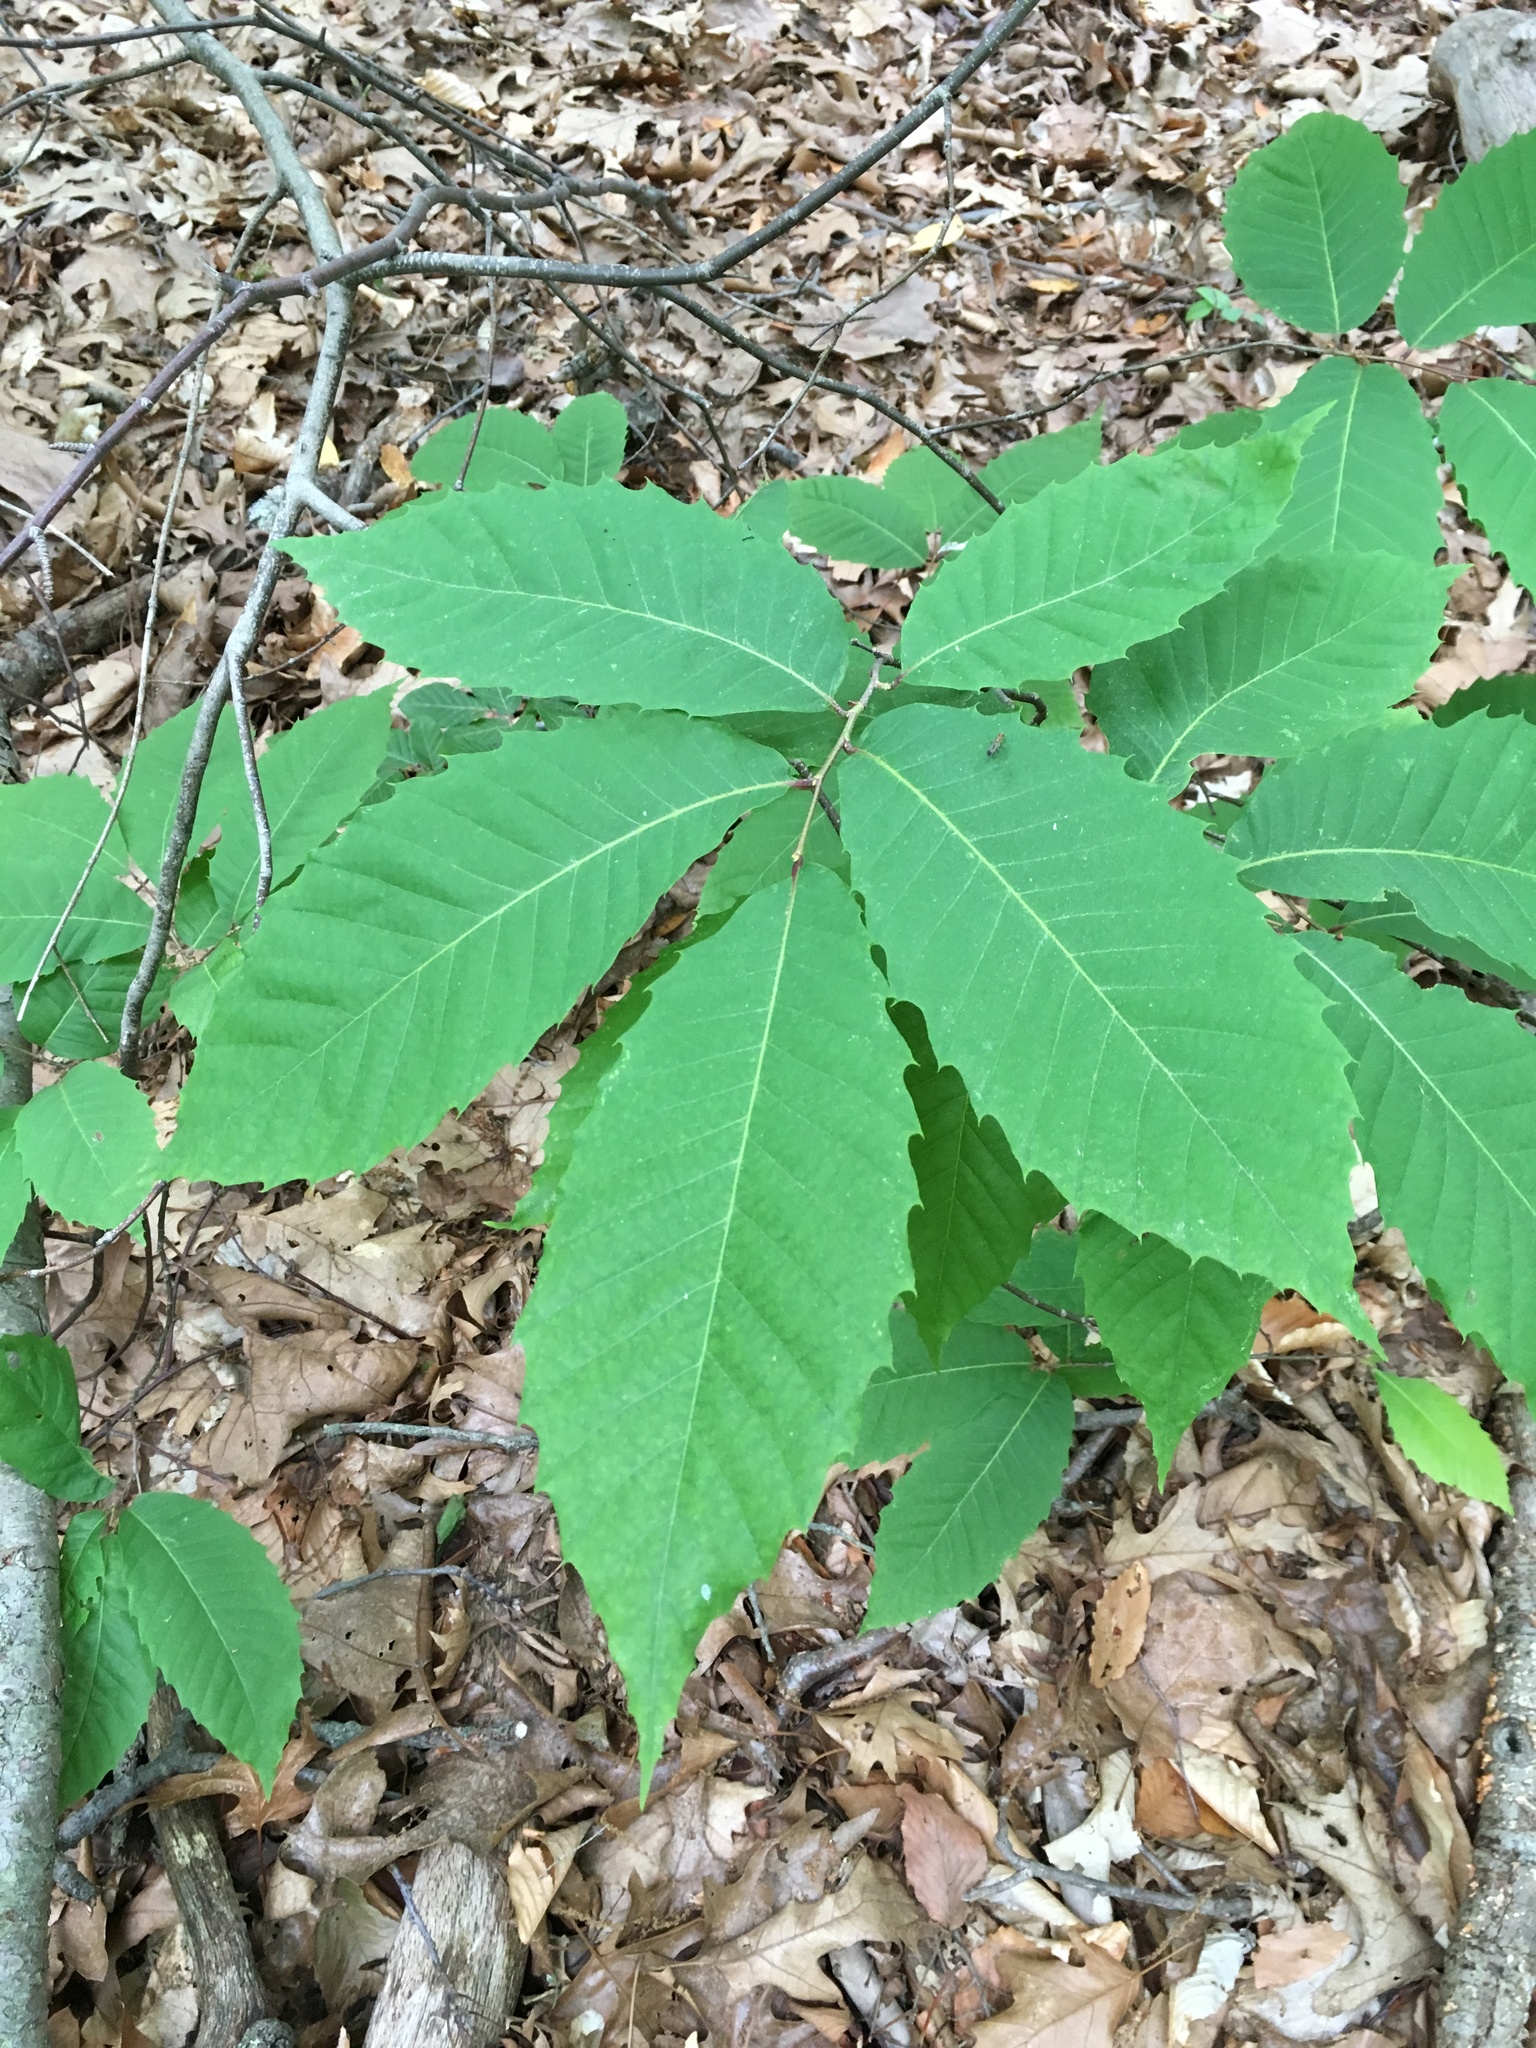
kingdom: Plantae
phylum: Tracheophyta
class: Magnoliopsida
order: Fagales
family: Fagaceae
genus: Castanea
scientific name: Castanea dentata
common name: American chestnut
